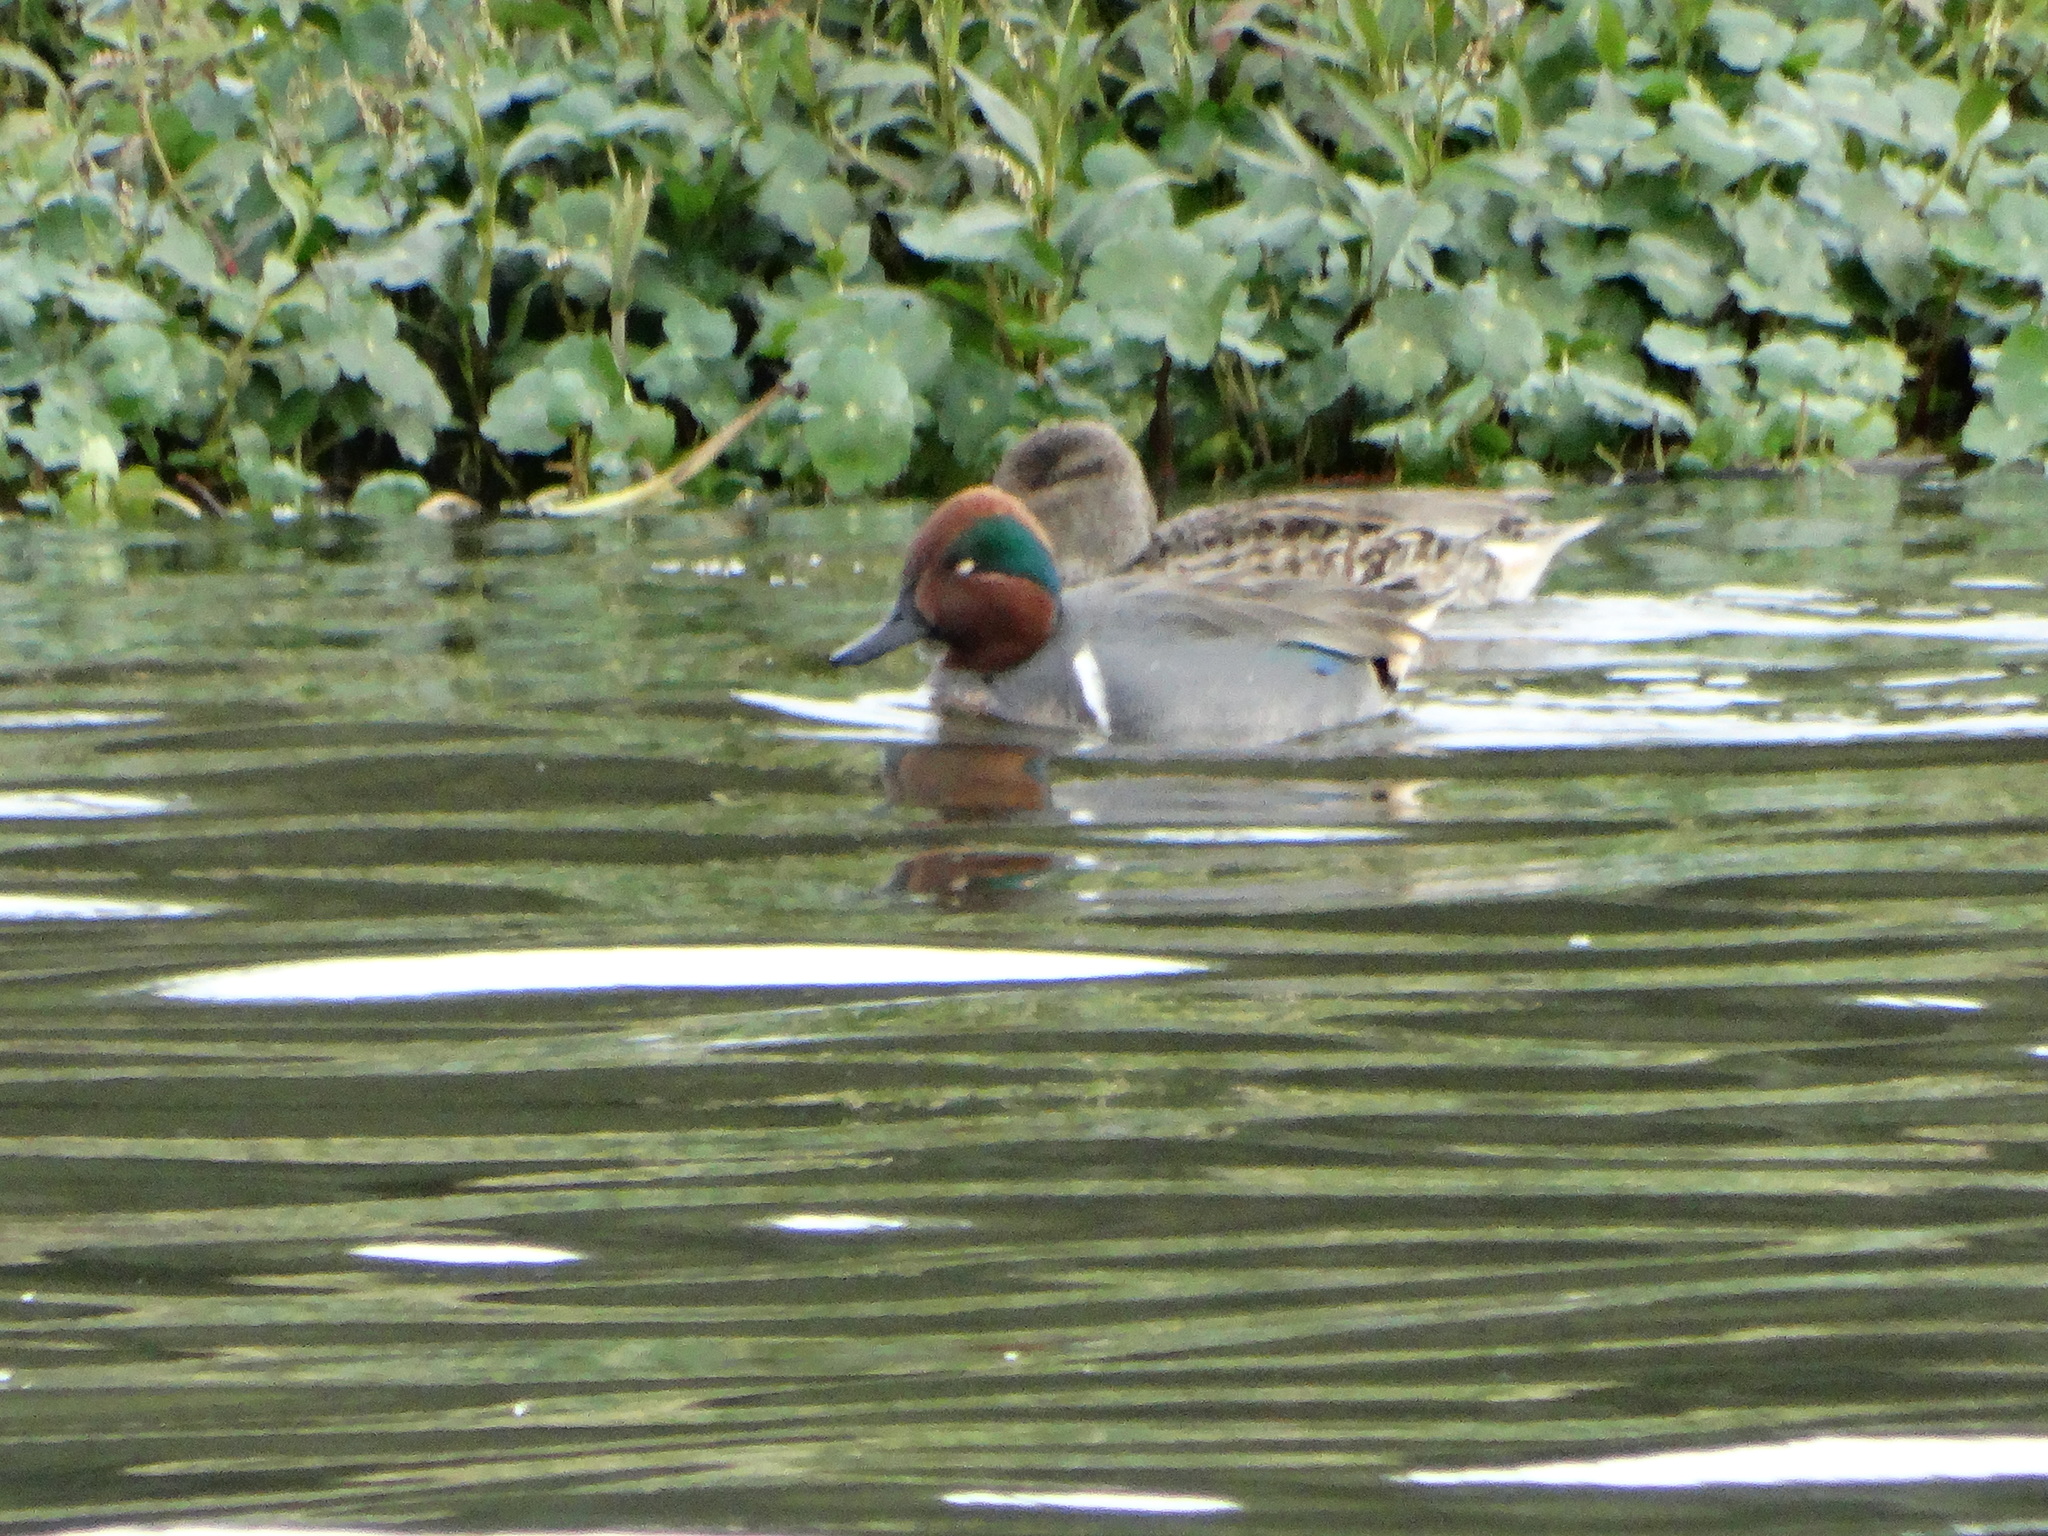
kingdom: Animalia
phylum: Chordata
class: Aves
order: Anseriformes
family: Anatidae
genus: Anas
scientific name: Anas carolinensis
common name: Green-winged teal
